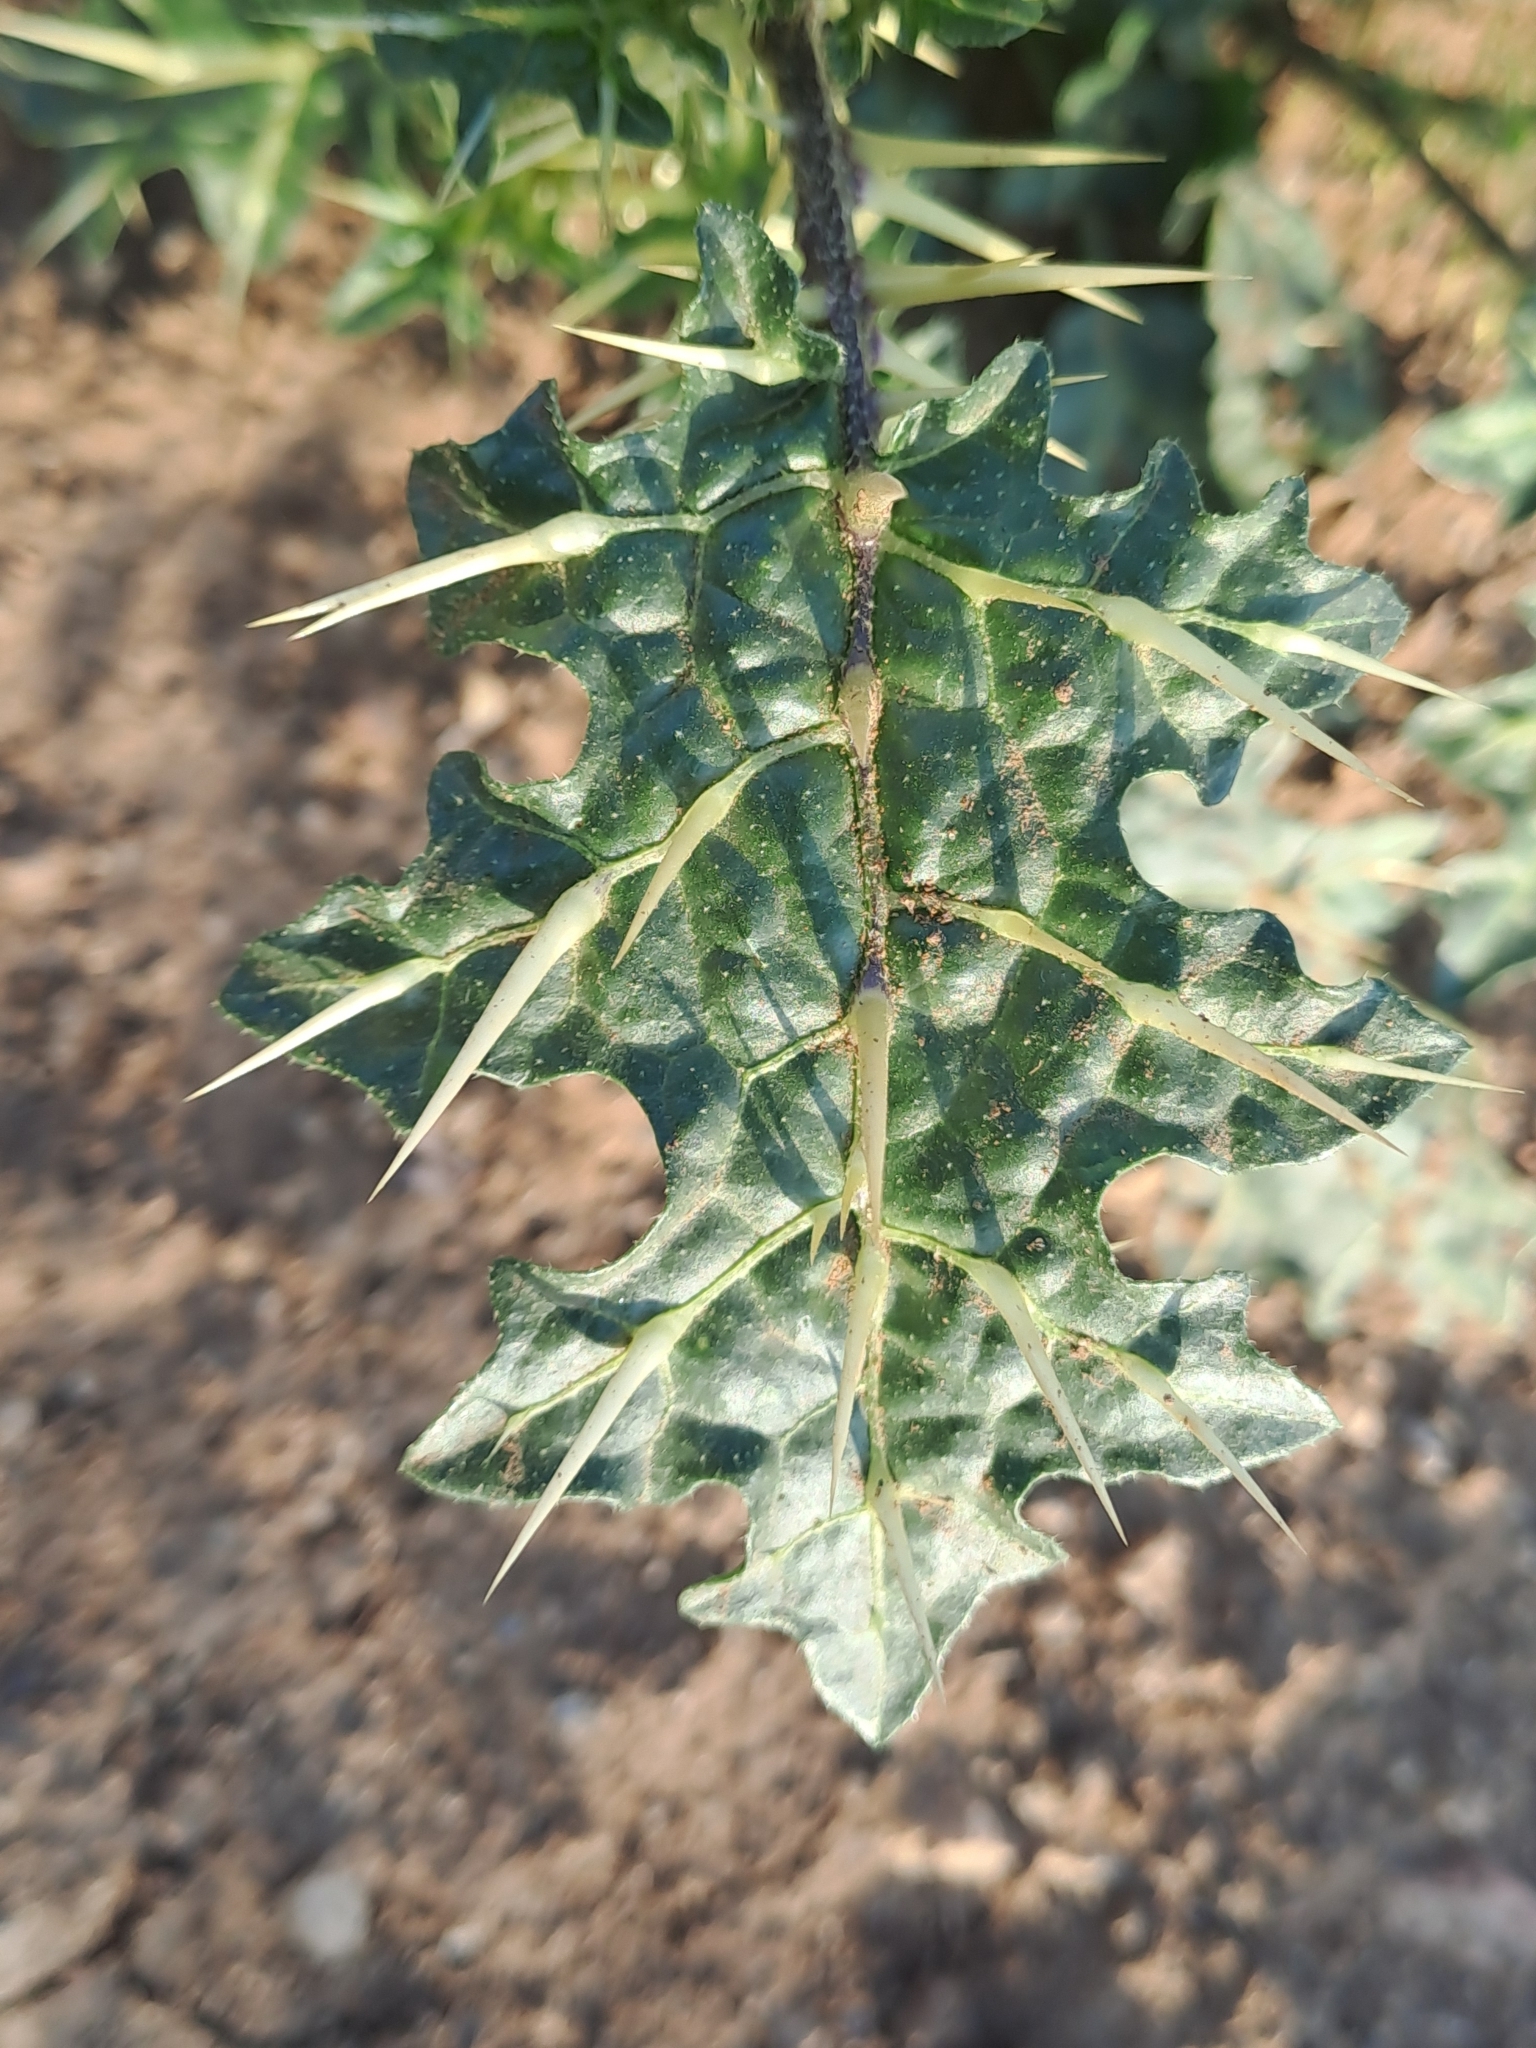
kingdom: Plantae
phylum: Tracheophyta
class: Magnoliopsida
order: Solanales
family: Solanaceae
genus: Solanum
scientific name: Solanum virginianum
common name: Surattense nightshade
